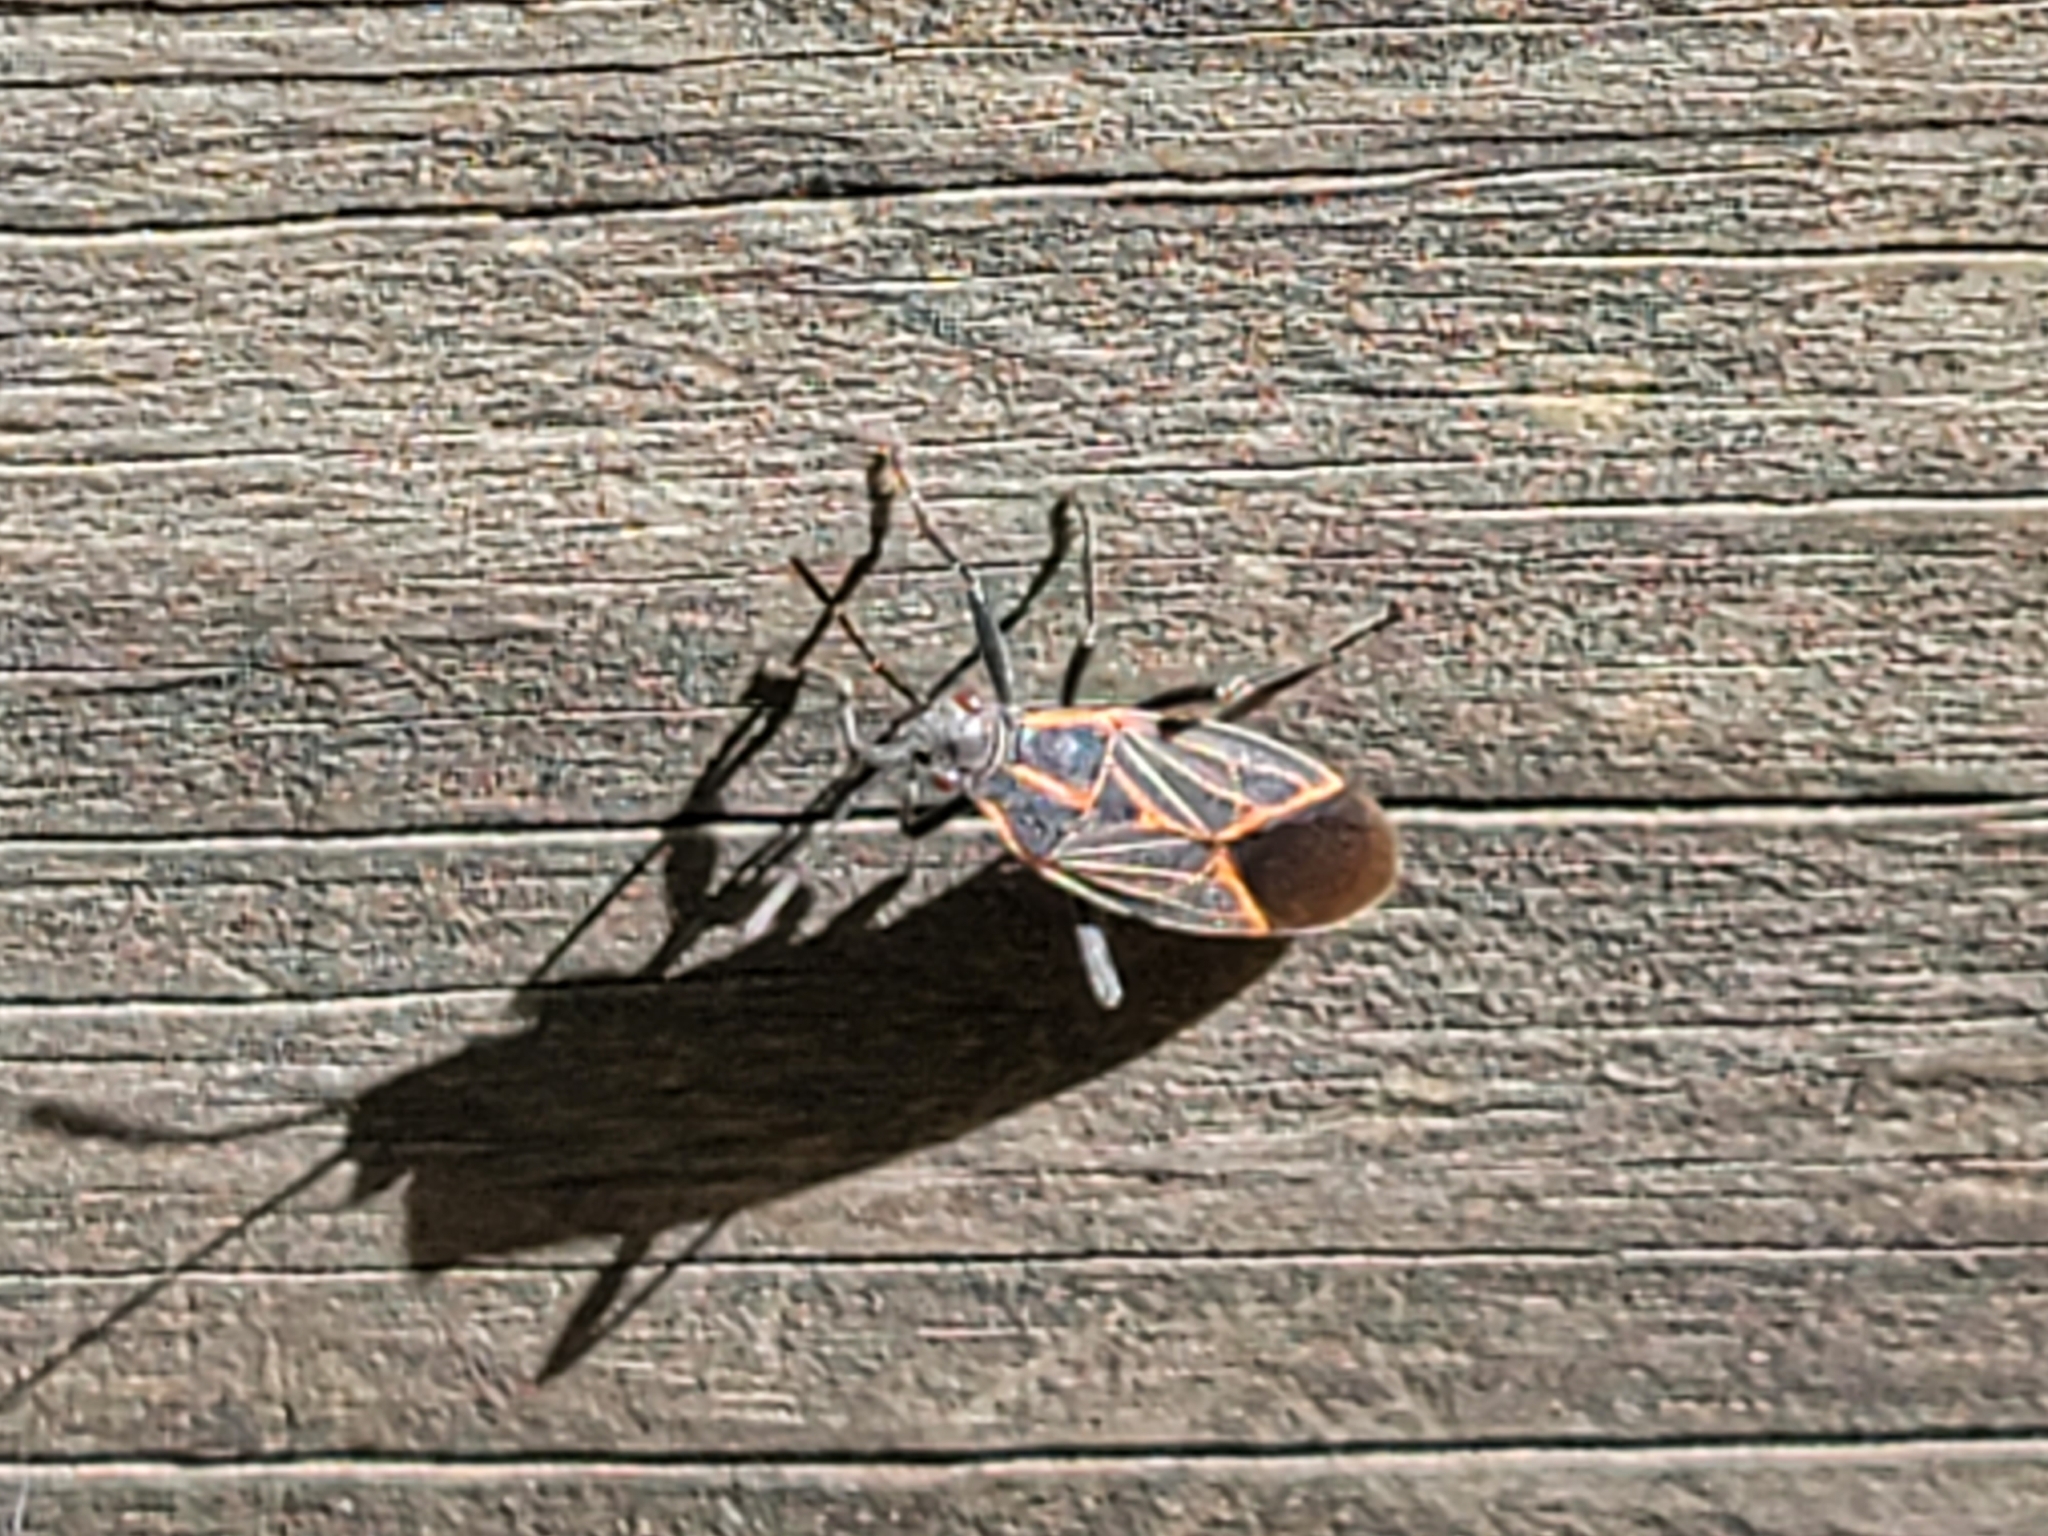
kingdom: Animalia
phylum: Arthropoda
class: Insecta
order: Hemiptera
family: Rhopalidae
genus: Boisea
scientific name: Boisea rubrolineata
